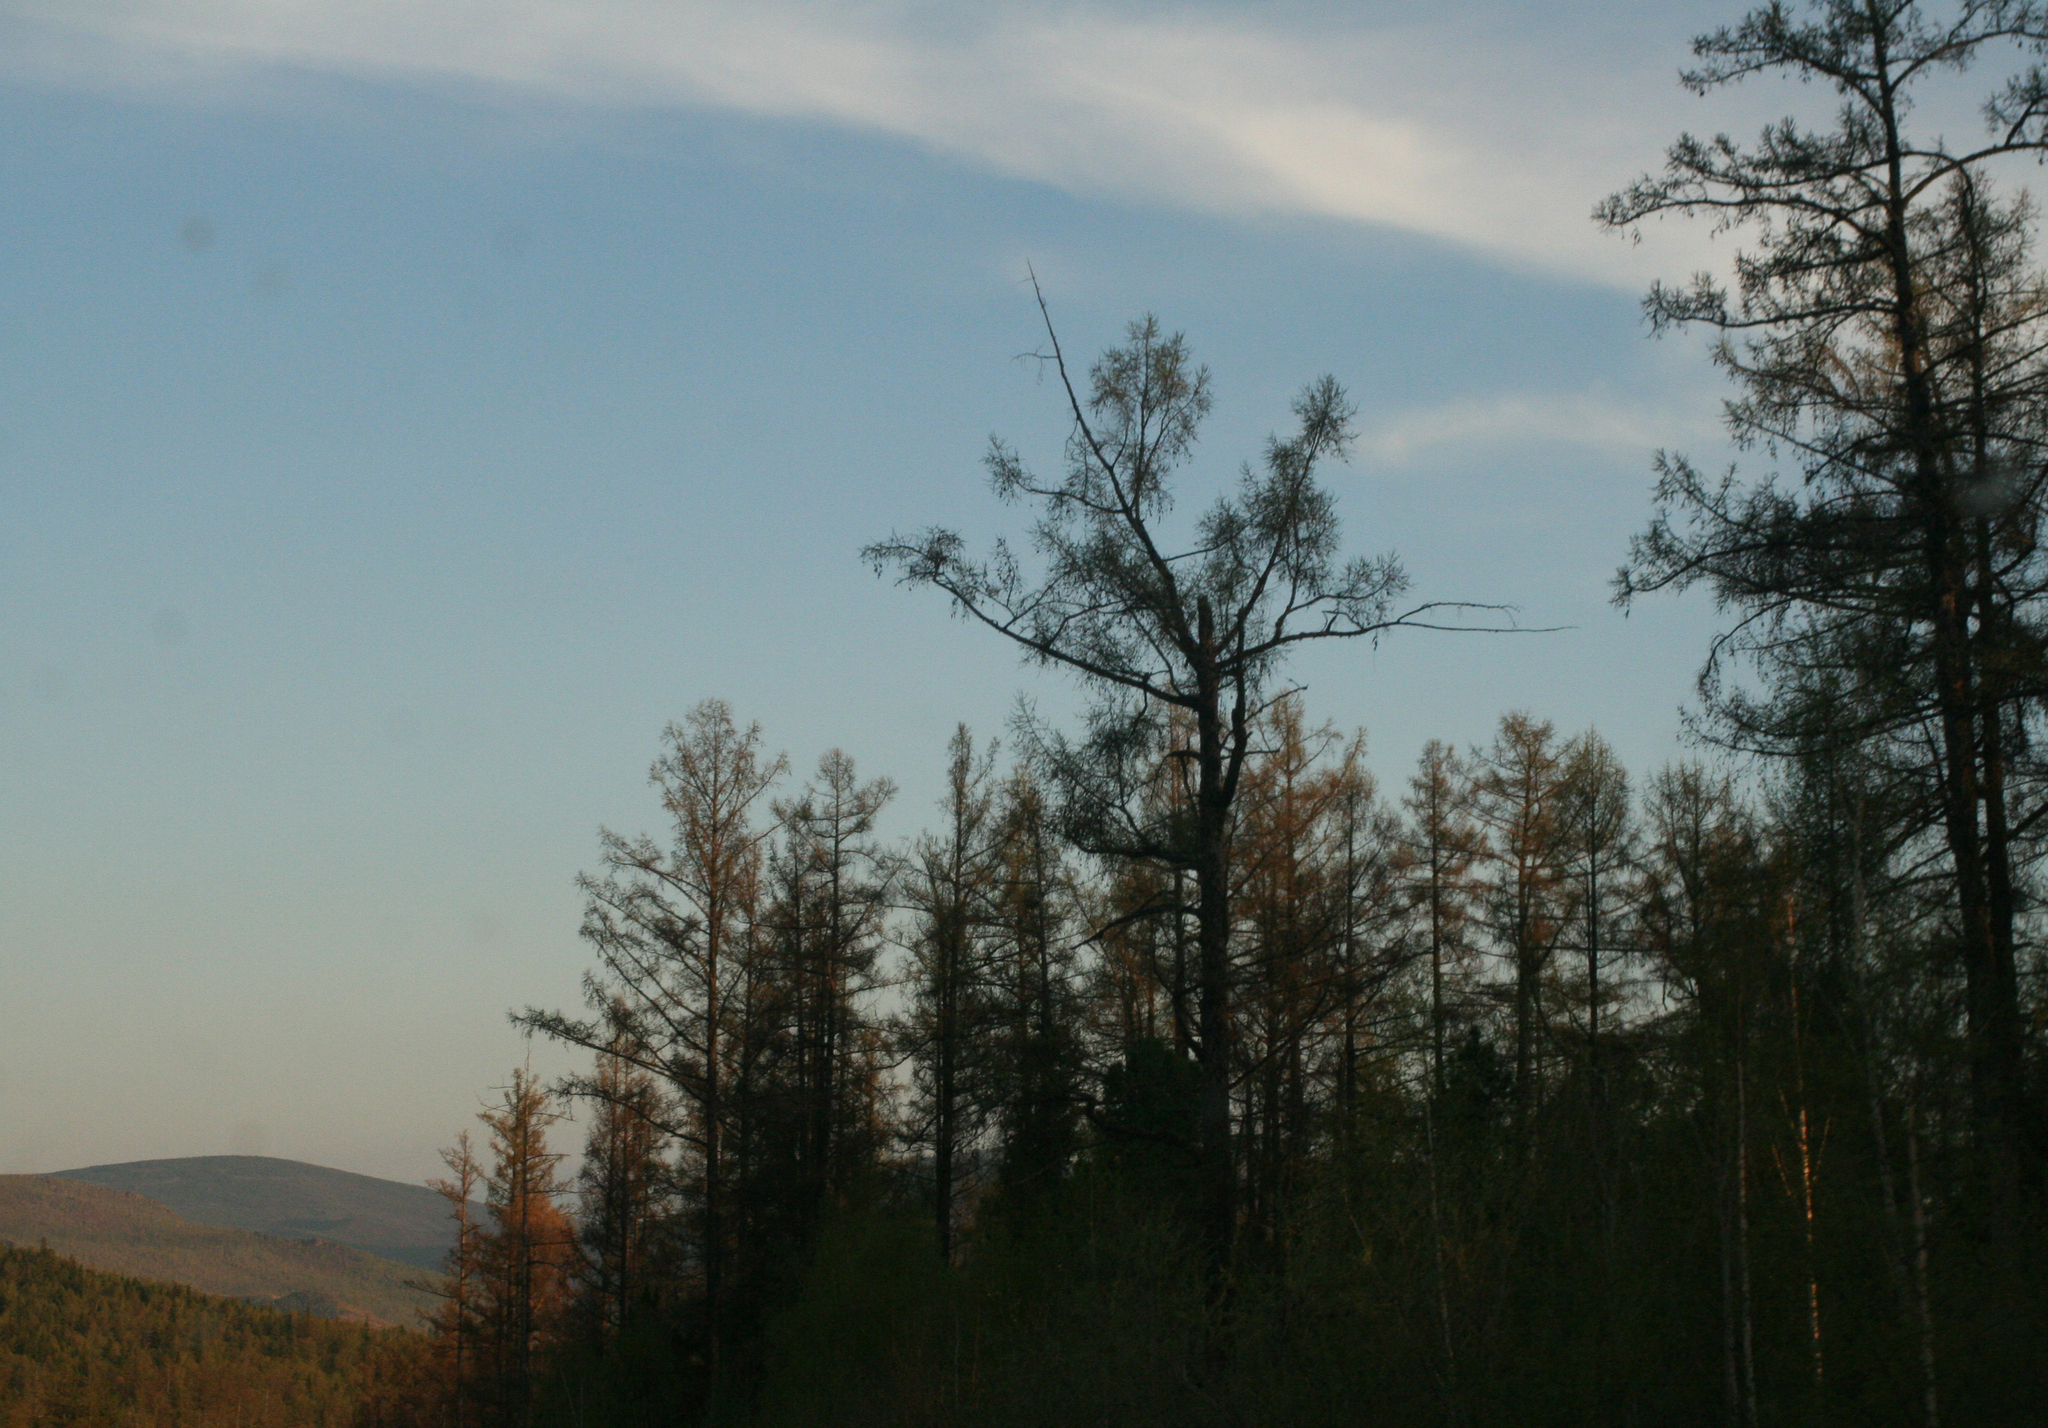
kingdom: Plantae
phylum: Tracheophyta
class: Pinopsida
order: Pinales
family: Pinaceae
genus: Larix
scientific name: Larix sibirica
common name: Siberian larch
